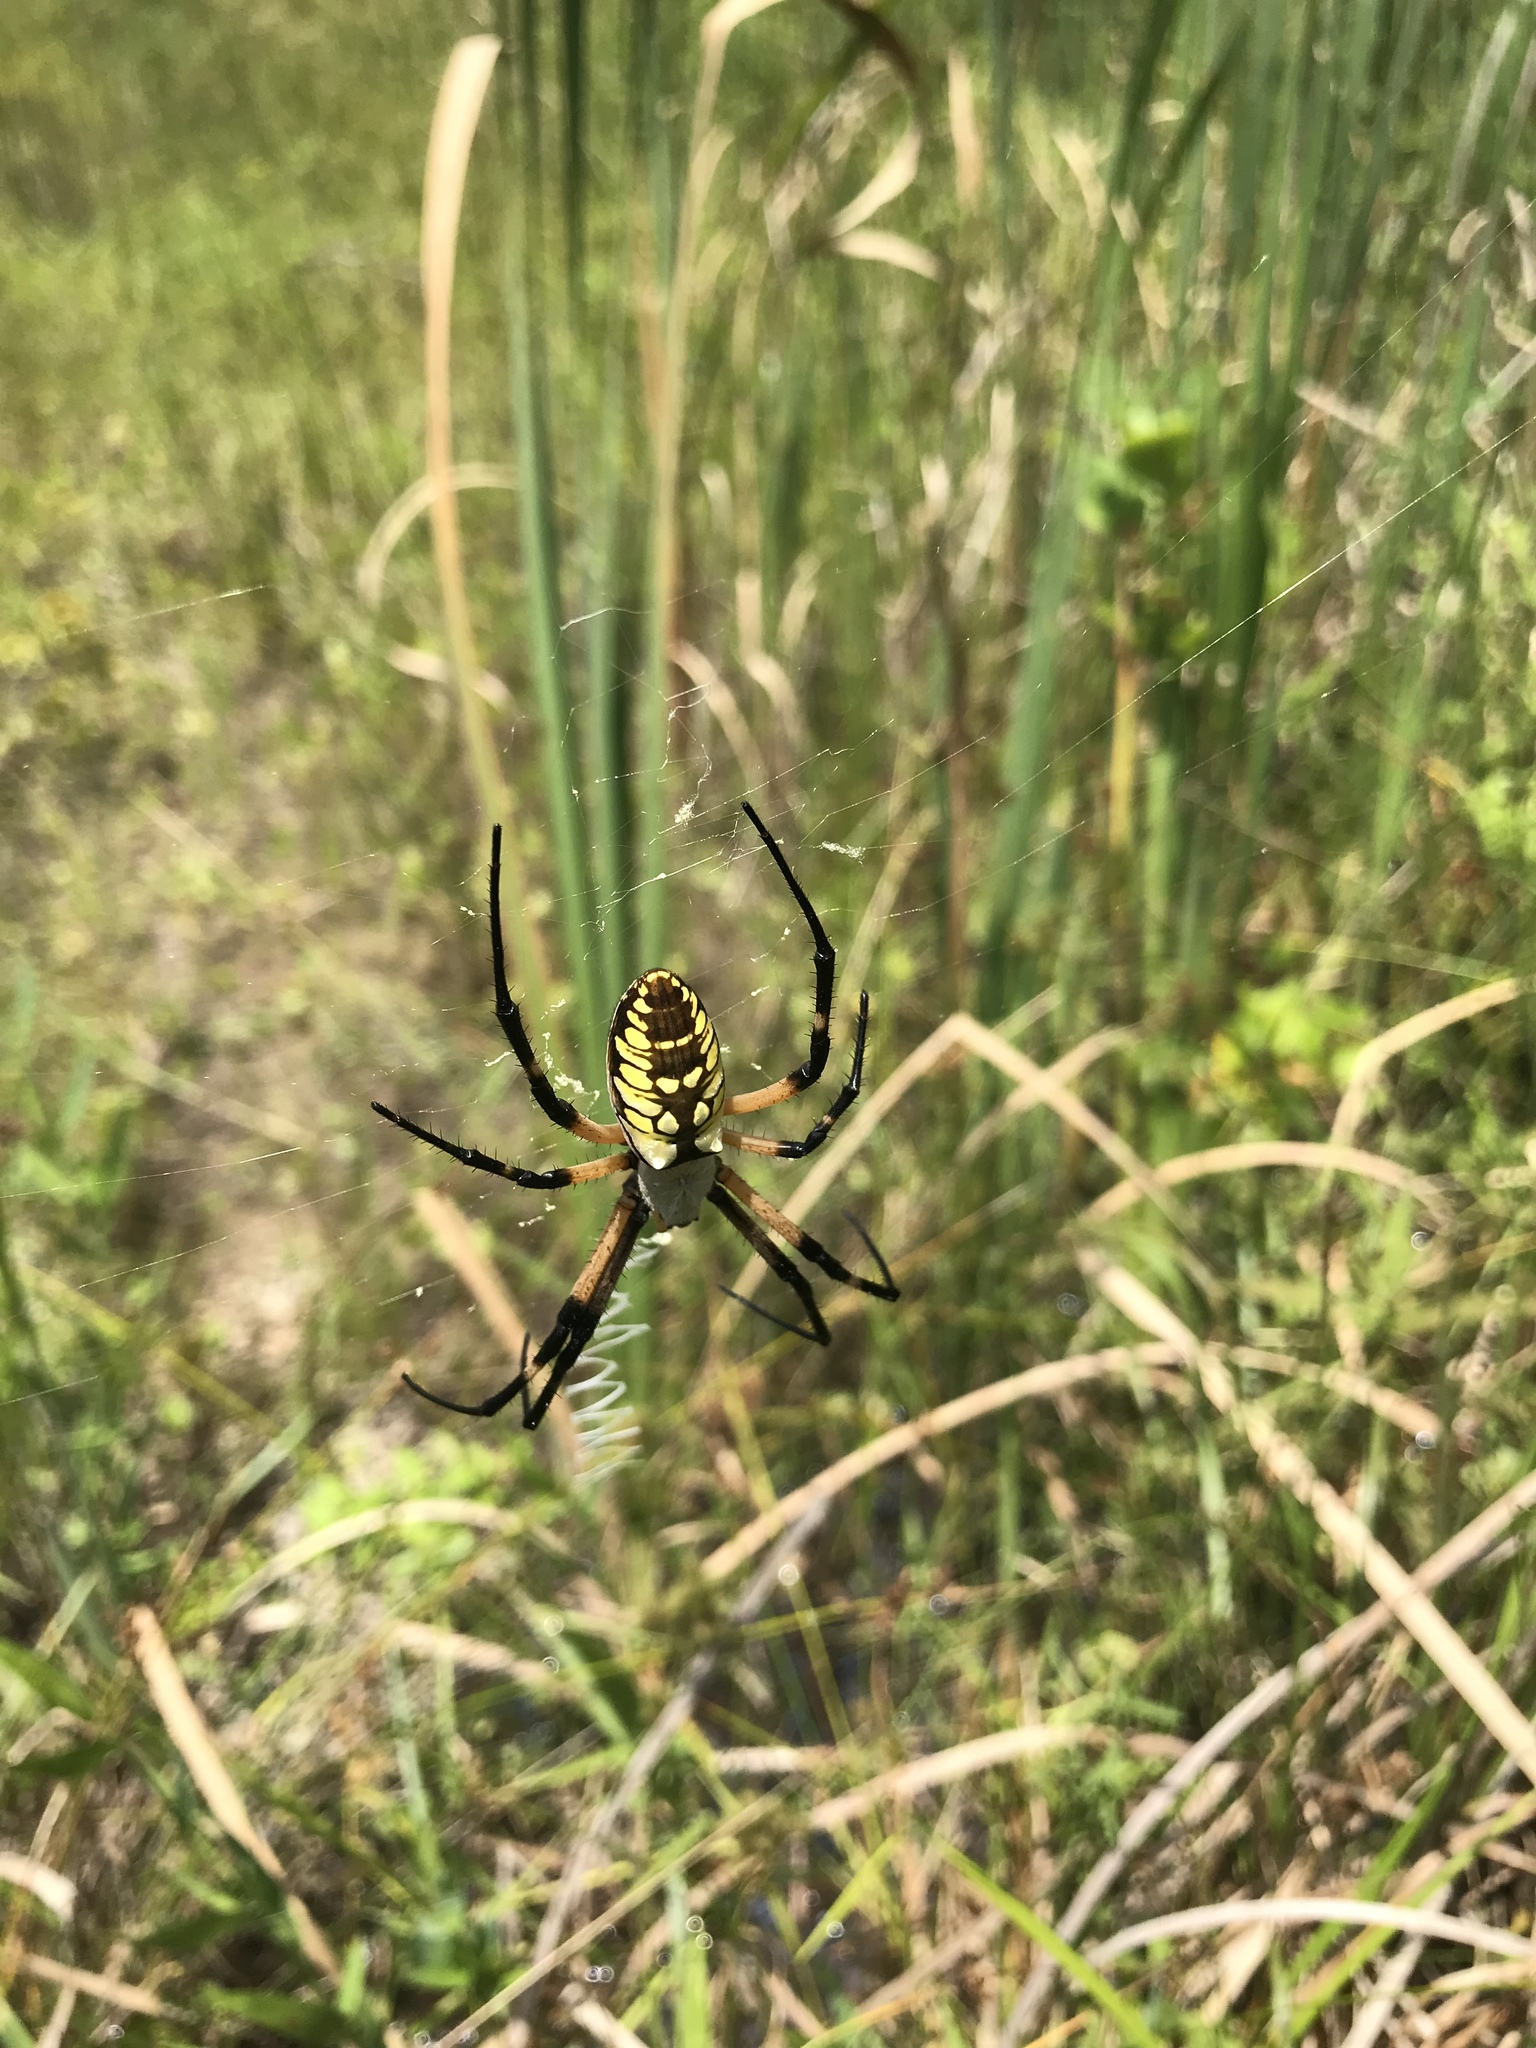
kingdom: Animalia
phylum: Arthropoda
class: Arachnida
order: Araneae
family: Araneidae
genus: Argiope
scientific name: Argiope aurantia
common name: Orb weavers
